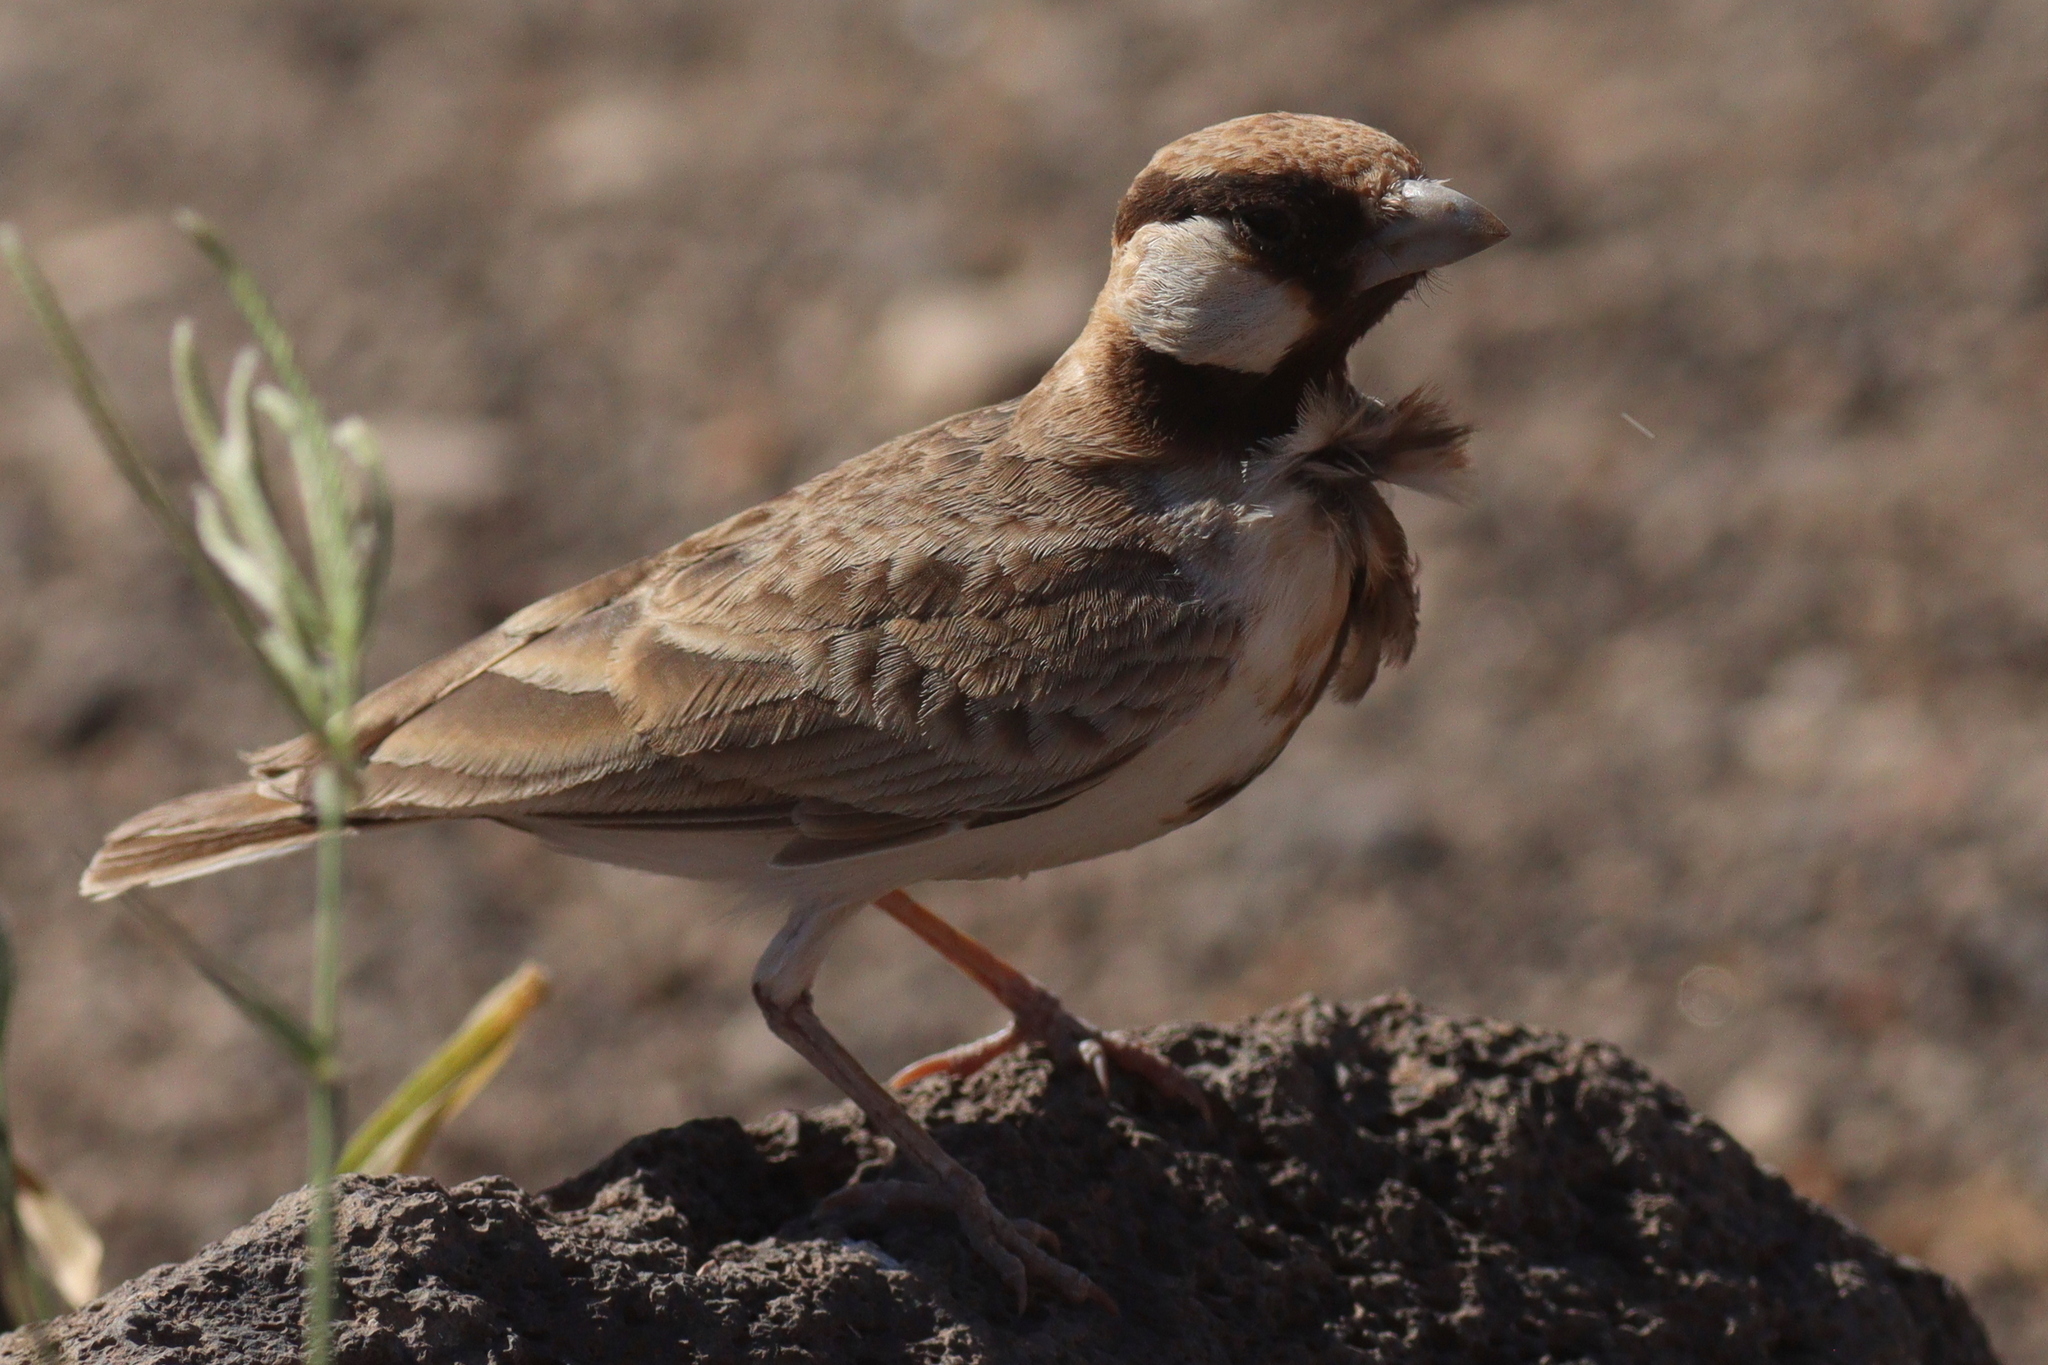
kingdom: Animalia
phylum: Chordata
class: Aves
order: Passeriformes
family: Alaudidae
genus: Eremopterix
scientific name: Eremopterix leucopareia
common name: Fischer's sparrow-lark
